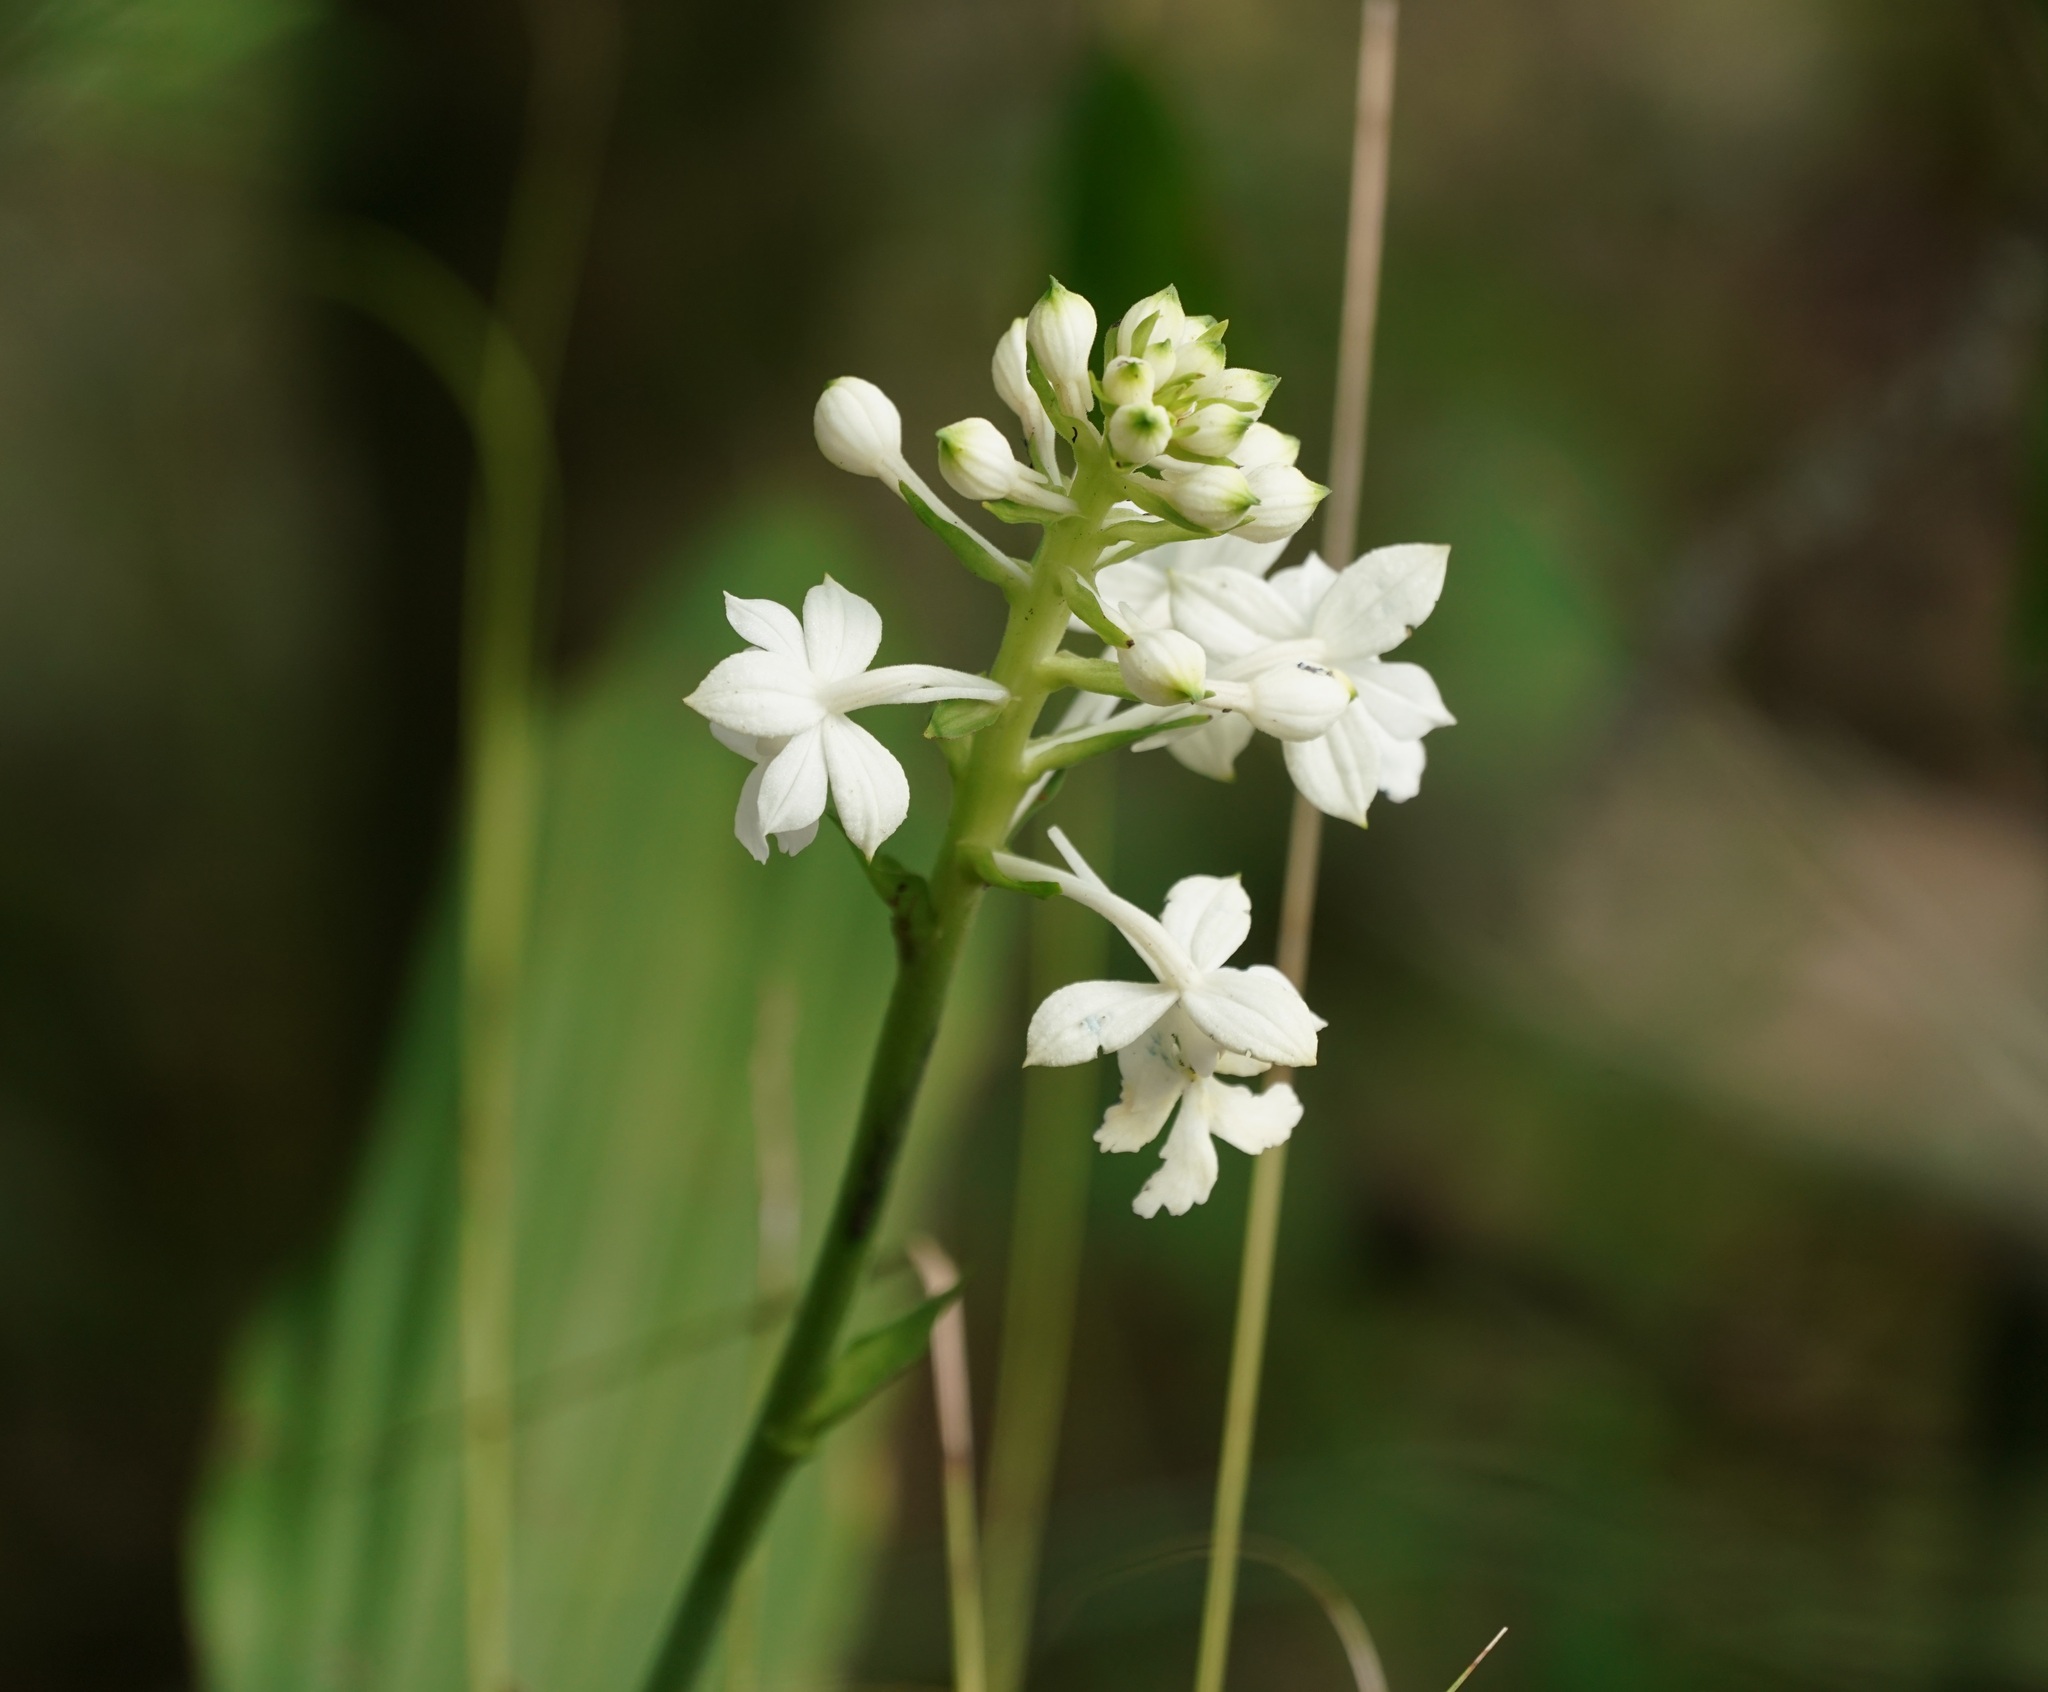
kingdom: Plantae
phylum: Tracheophyta
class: Liliopsida
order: Asparagales
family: Orchidaceae
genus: Calanthe
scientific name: Calanthe triplicata
